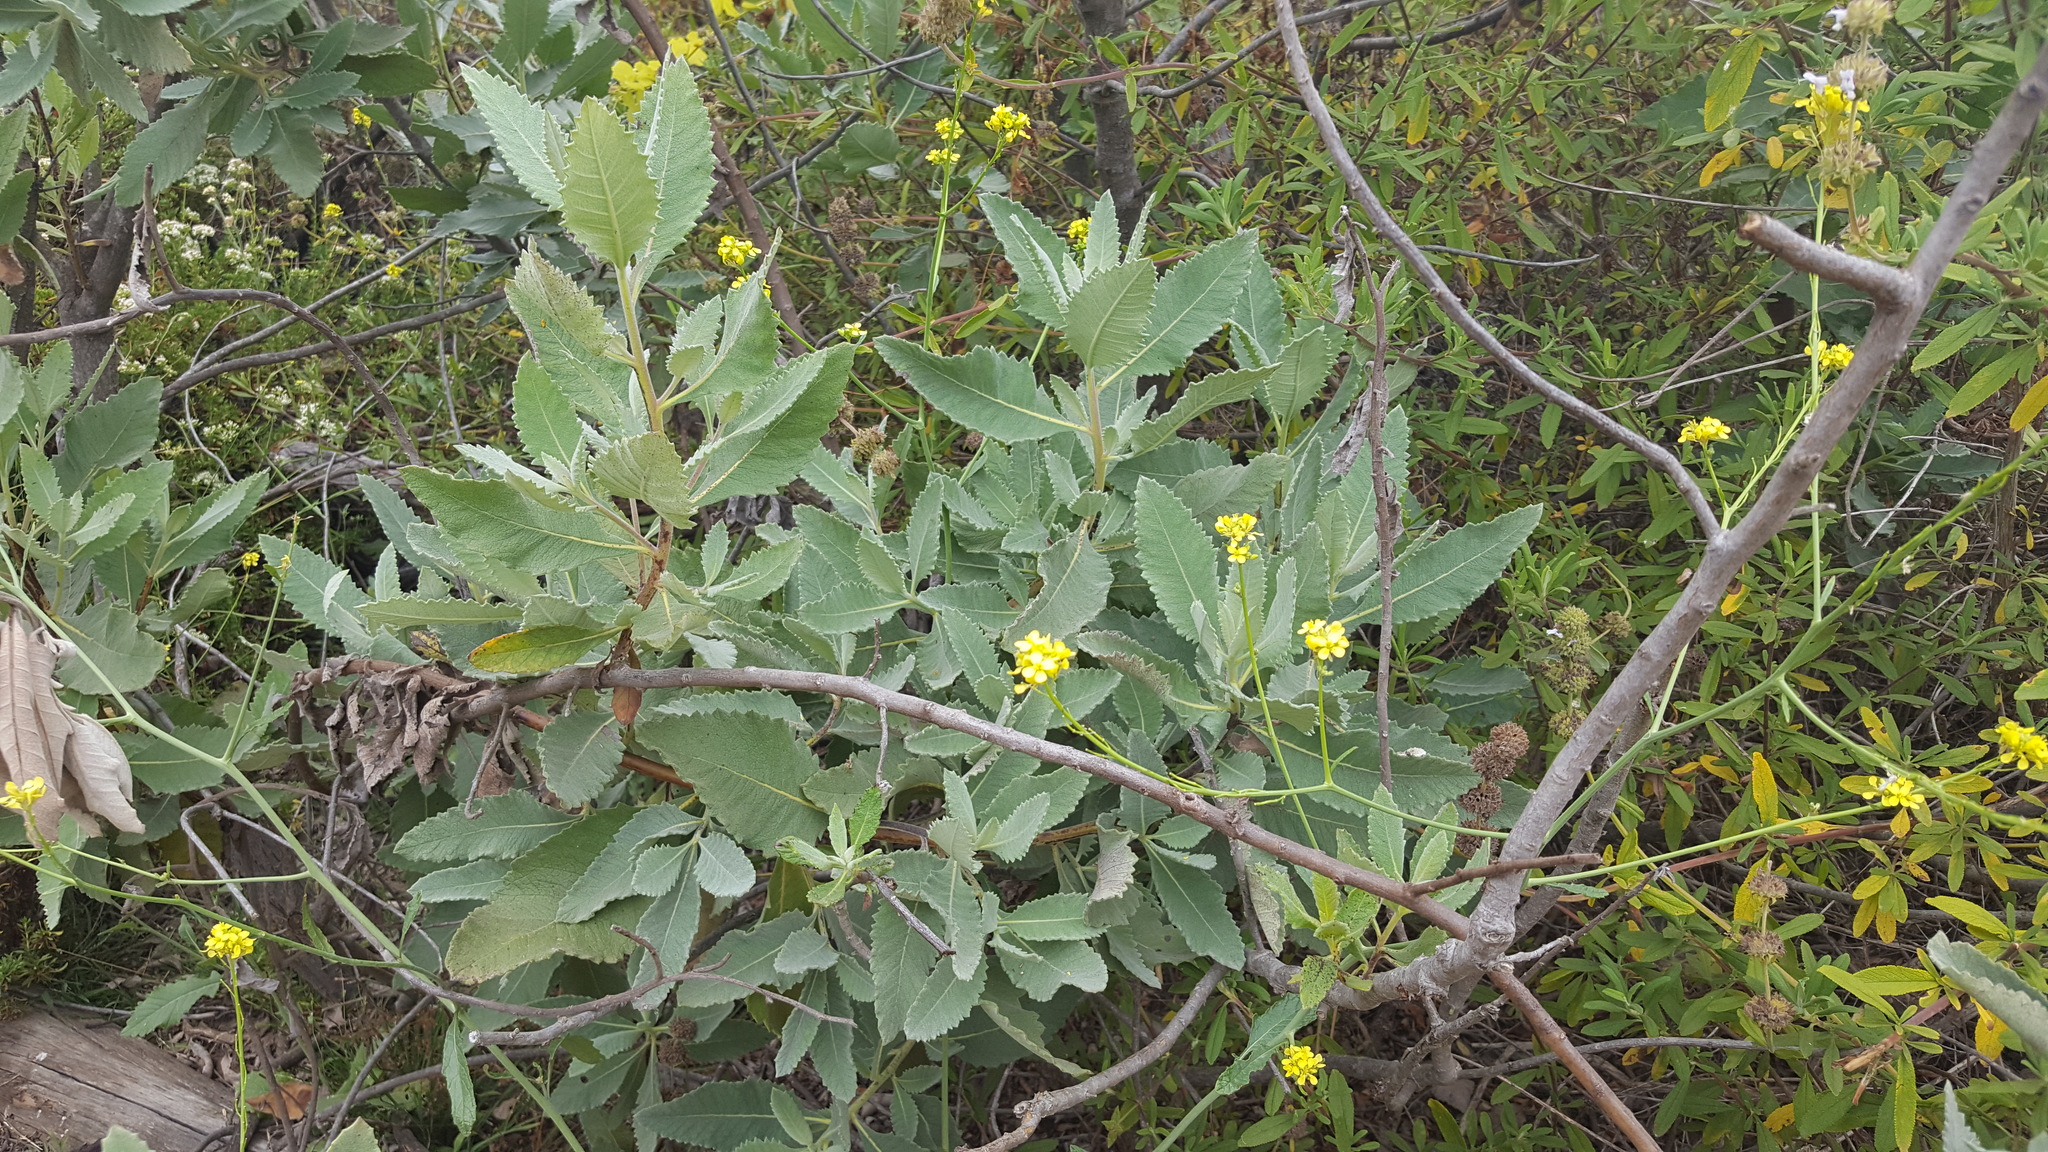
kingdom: Plantae
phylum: Tracheophyta
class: Magnoliopsida
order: Boraginales
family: Namaceae
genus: Eriodictyon
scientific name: Eriodictyon crassifolium
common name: Thick-leaf yerba-santa
